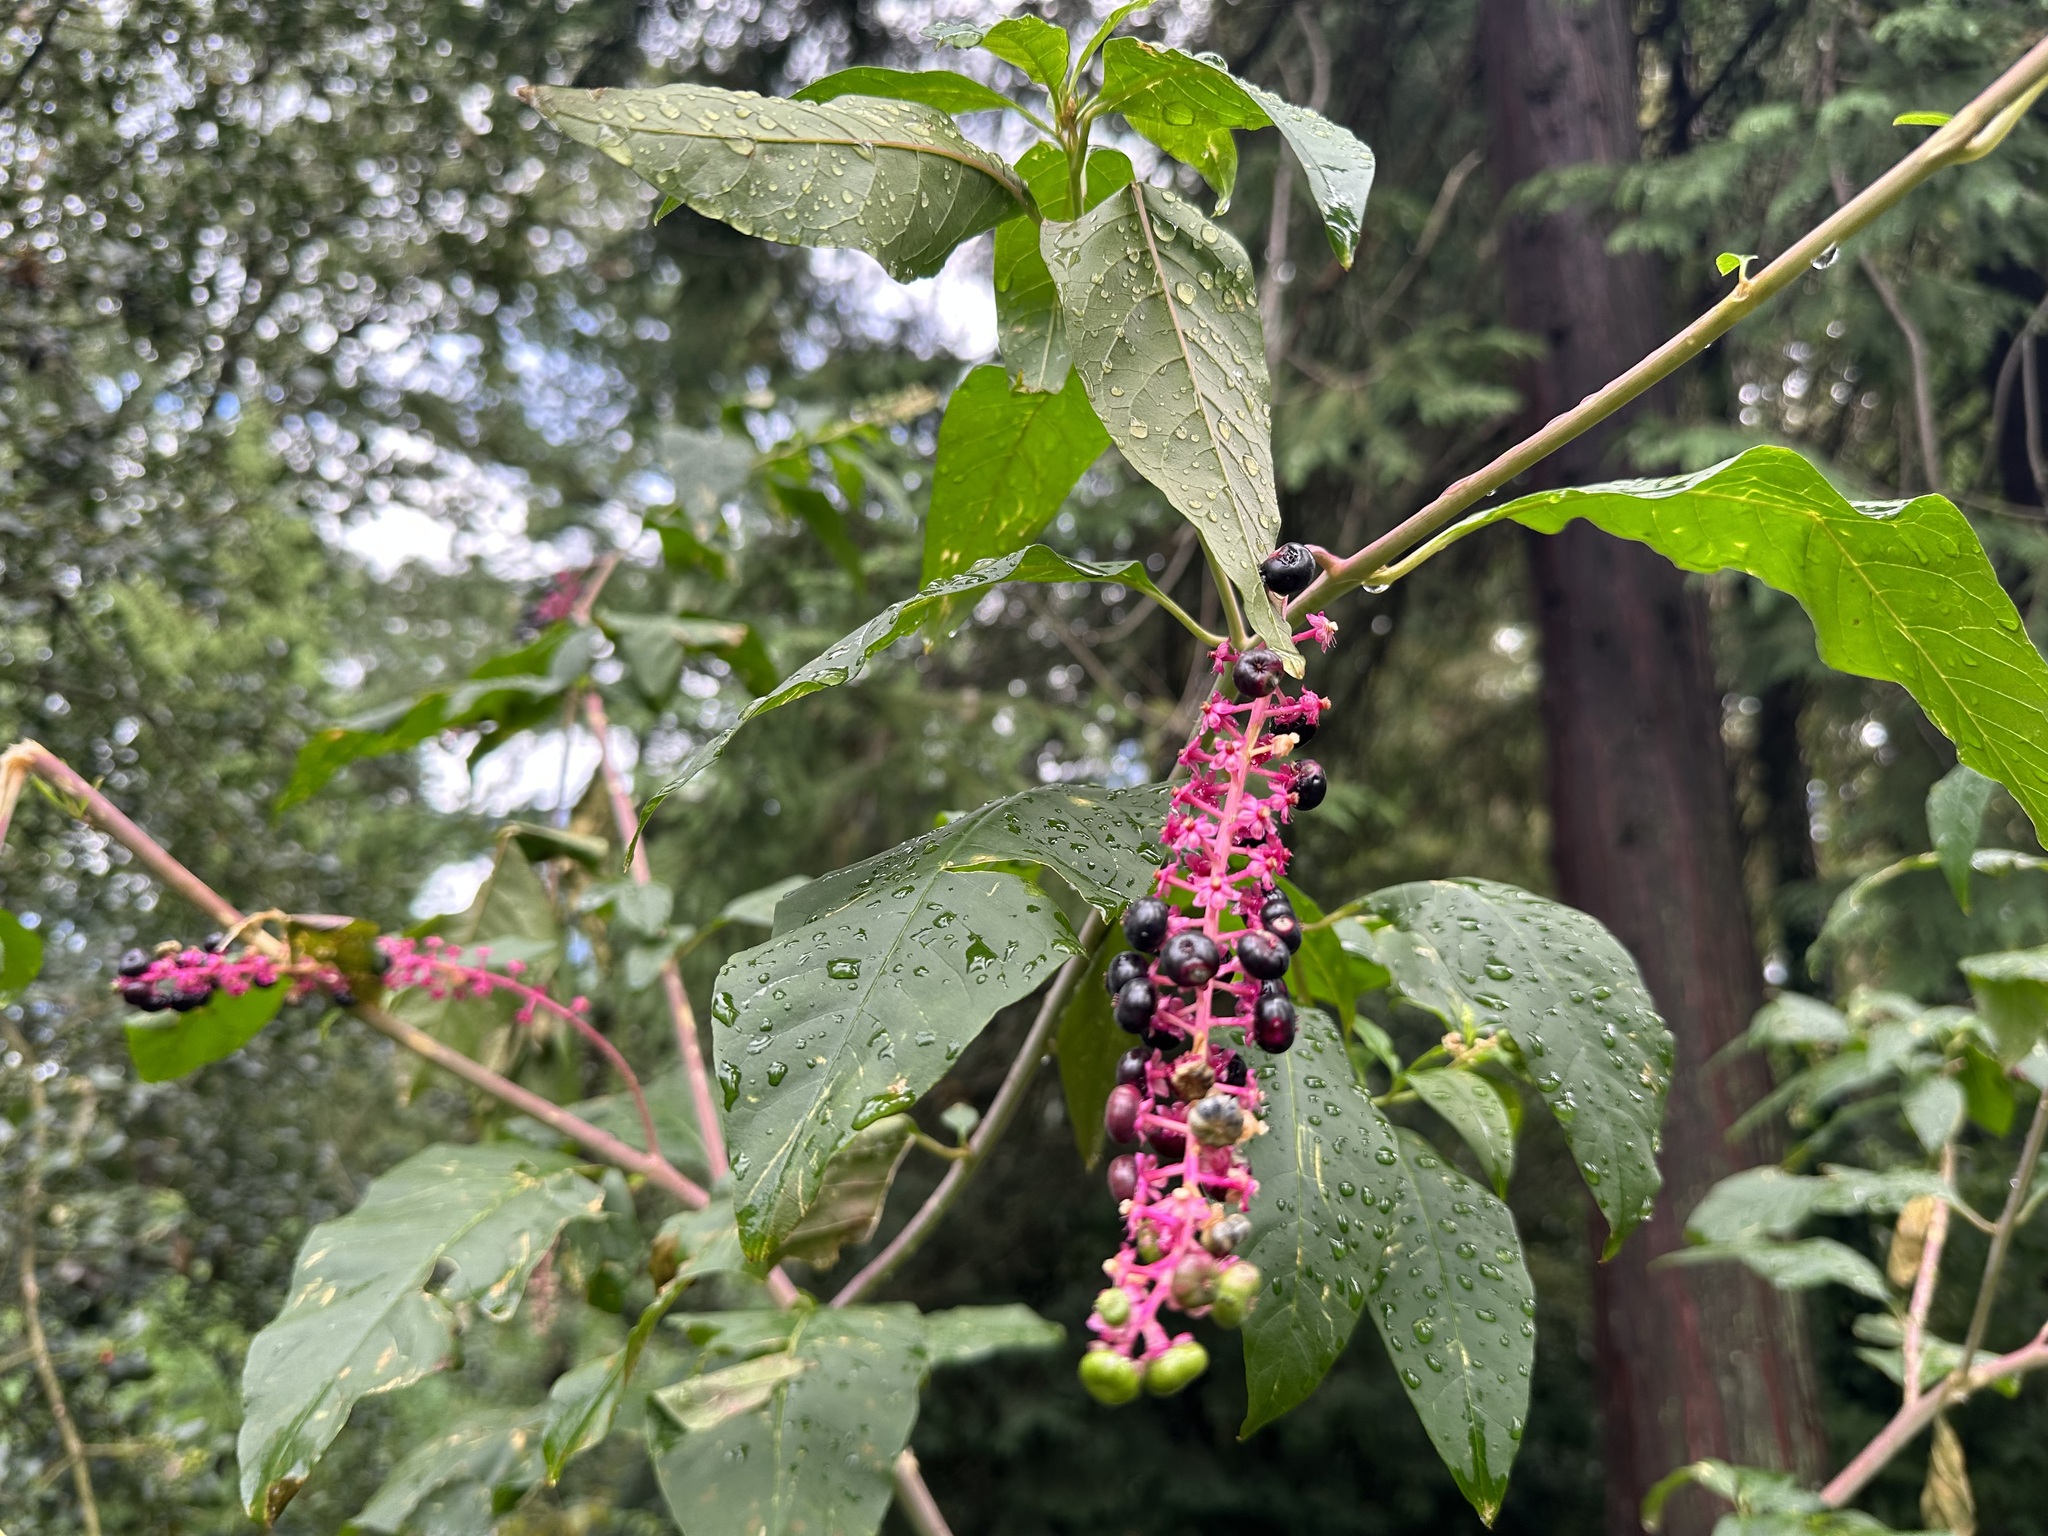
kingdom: Plantae
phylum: Tracheophyta
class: Magnoliopsida
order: Caryophyllales
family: Phytolaccaceae
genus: Phytolacca
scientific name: Phytolacca americana
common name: American pokeweed
